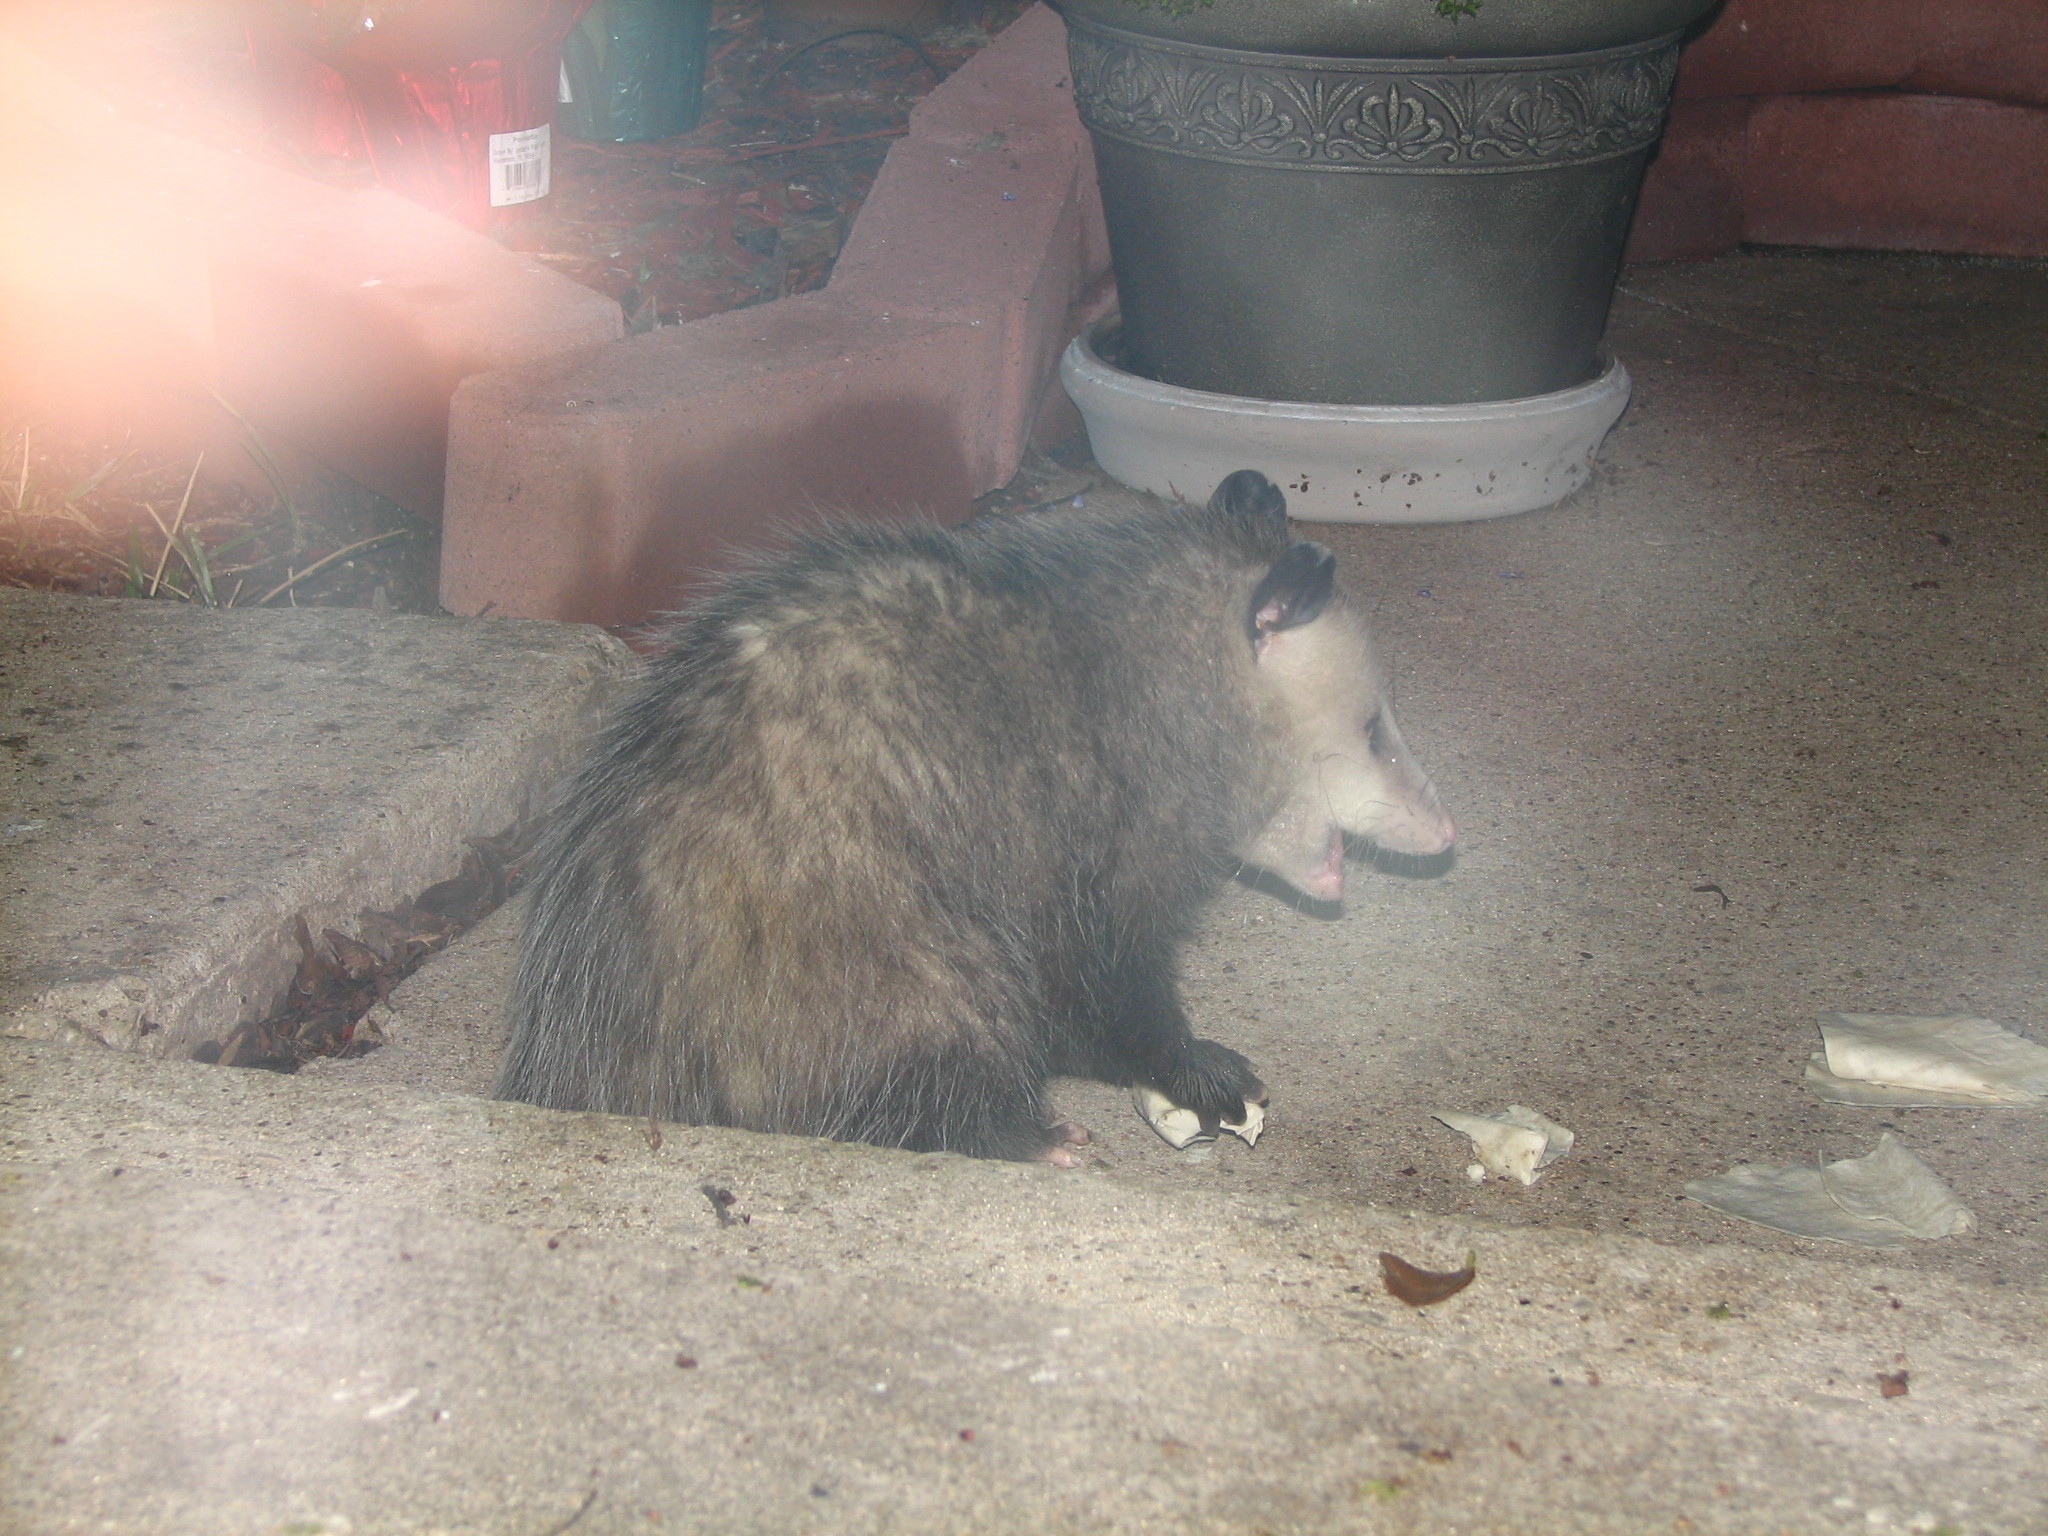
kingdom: Animalia
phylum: Chordata
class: Mammalia
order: Didelphimorphia
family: Didelphidae
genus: Didelphis
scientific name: Didelphis virginiana
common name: Virginia opossum
